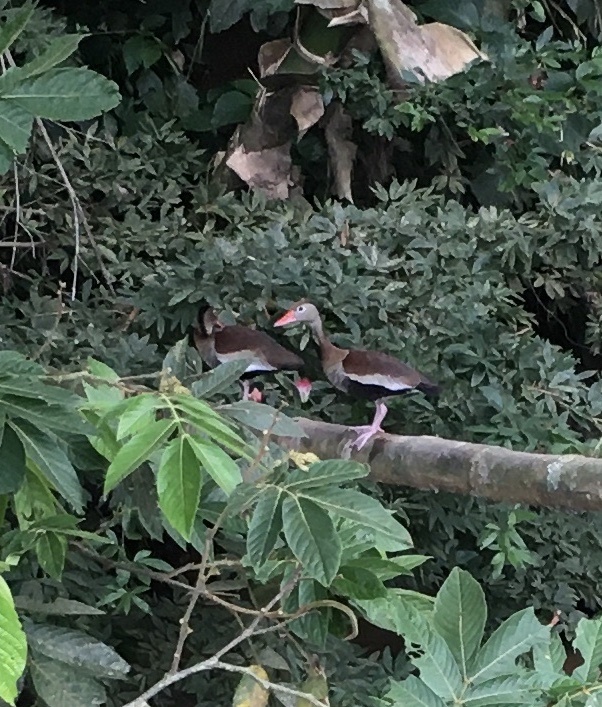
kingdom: Animalia
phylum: Chordata
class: Aves
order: Anseriformes
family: Anatidae
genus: Dendrocygna
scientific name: Dendrocygna autumnalis
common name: Black-bellied whistling duck
